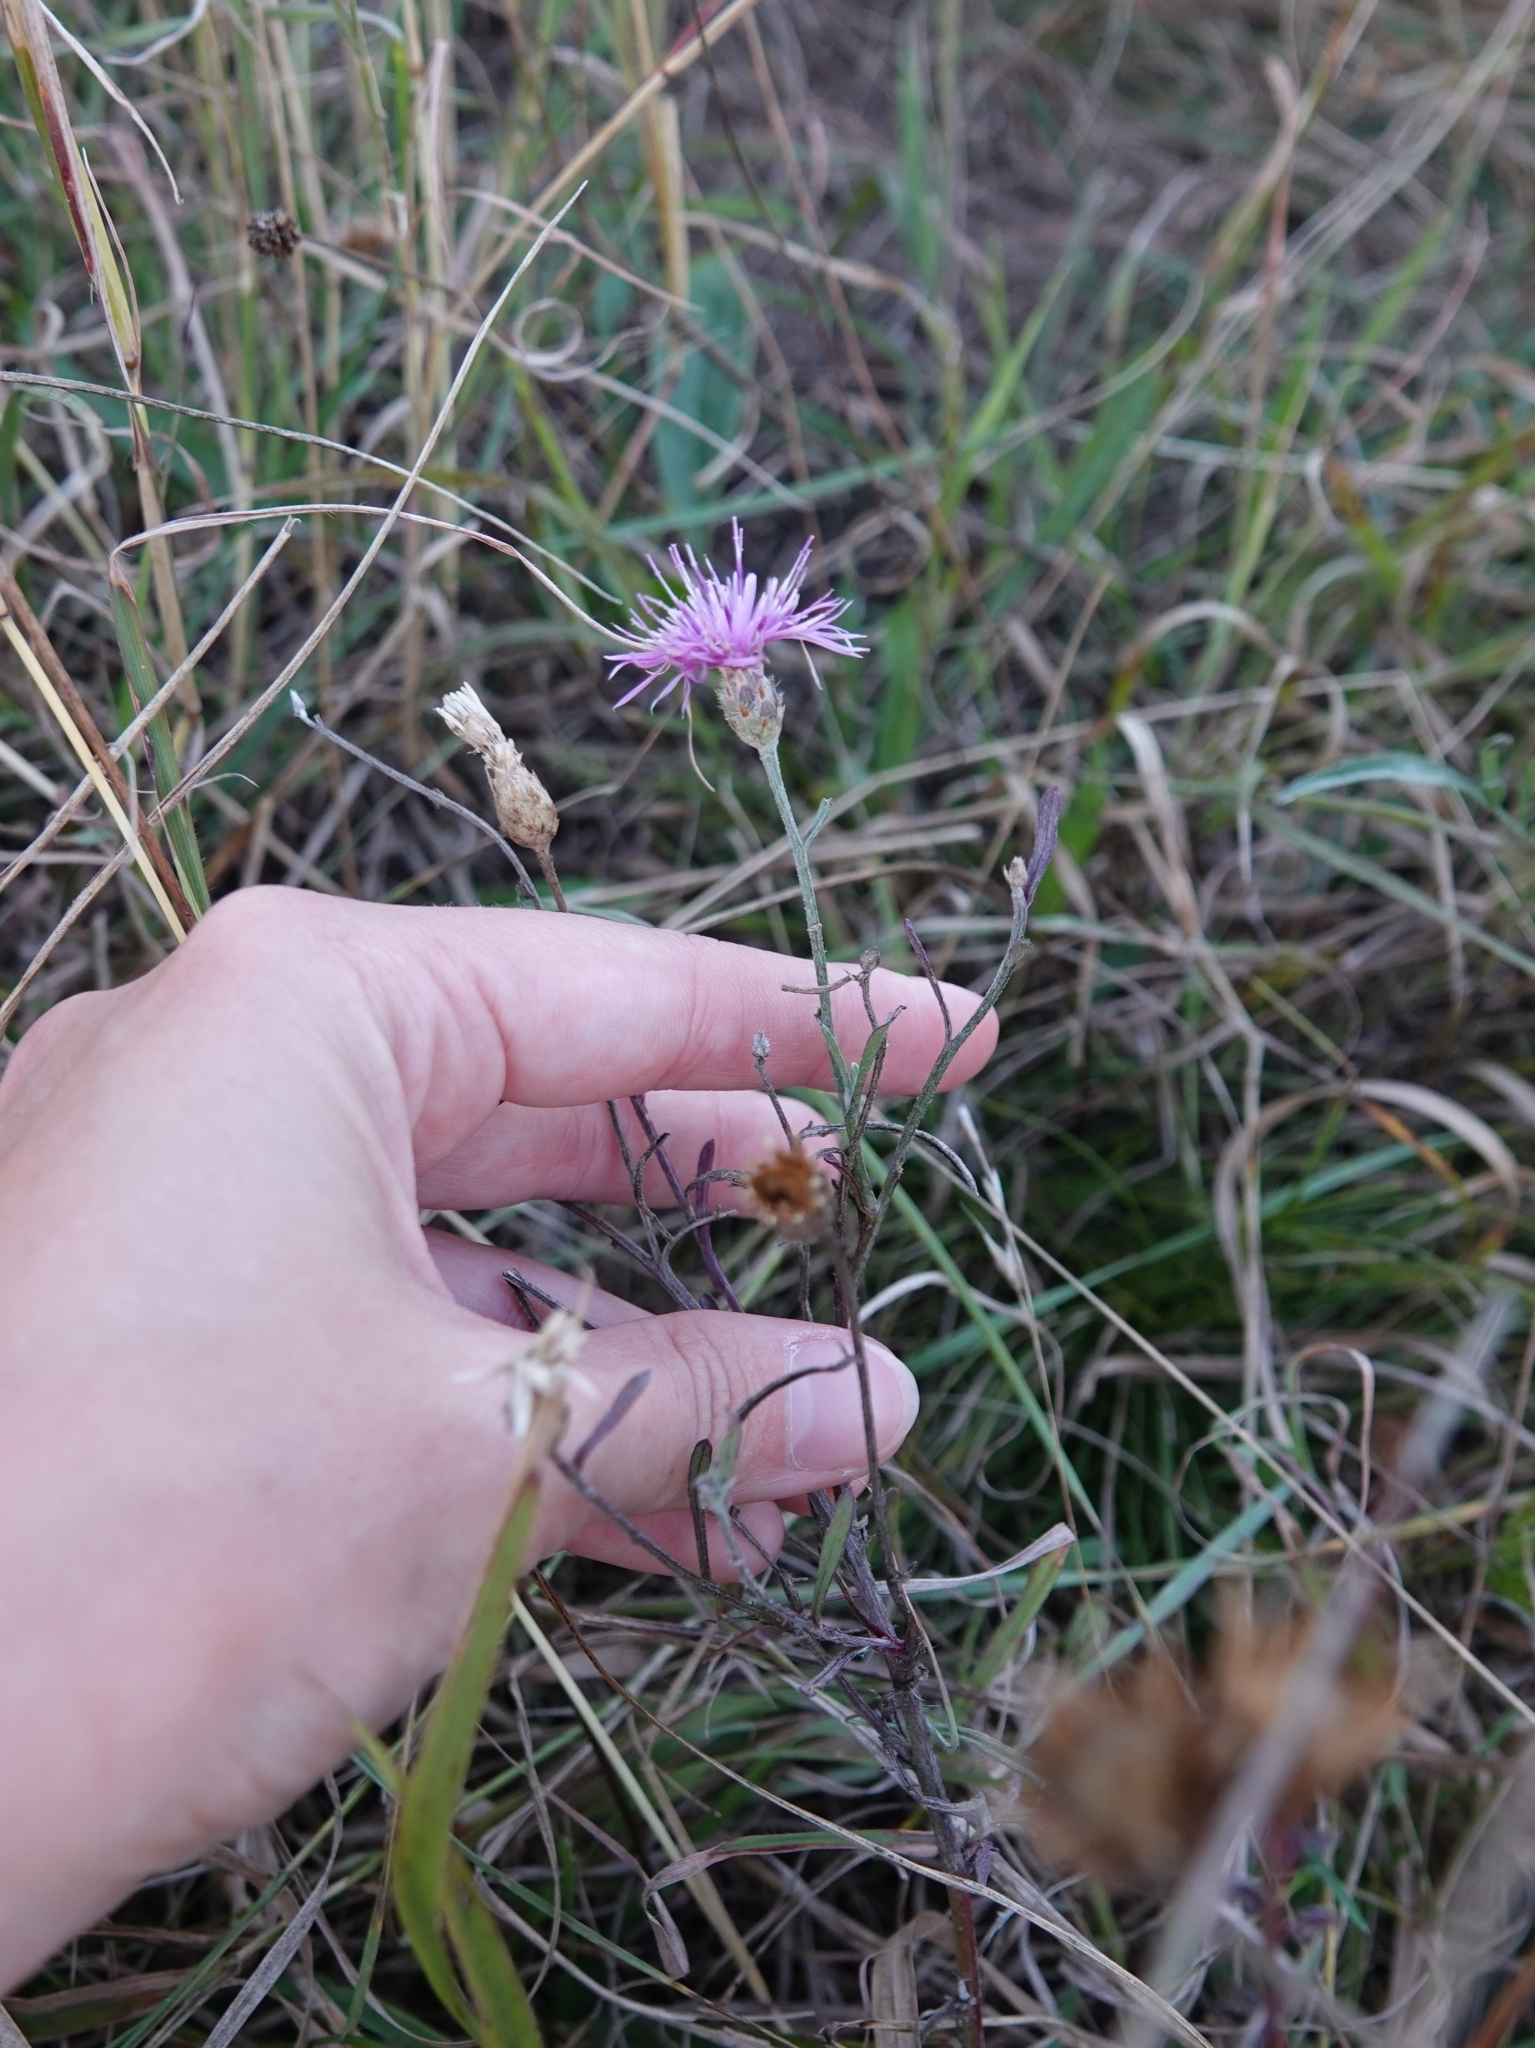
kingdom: Plantae
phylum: Tracheophyta
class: Magnoliopsida
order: Asterales
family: Asteraceae
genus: Centaurea
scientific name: Centaurea arenaria
